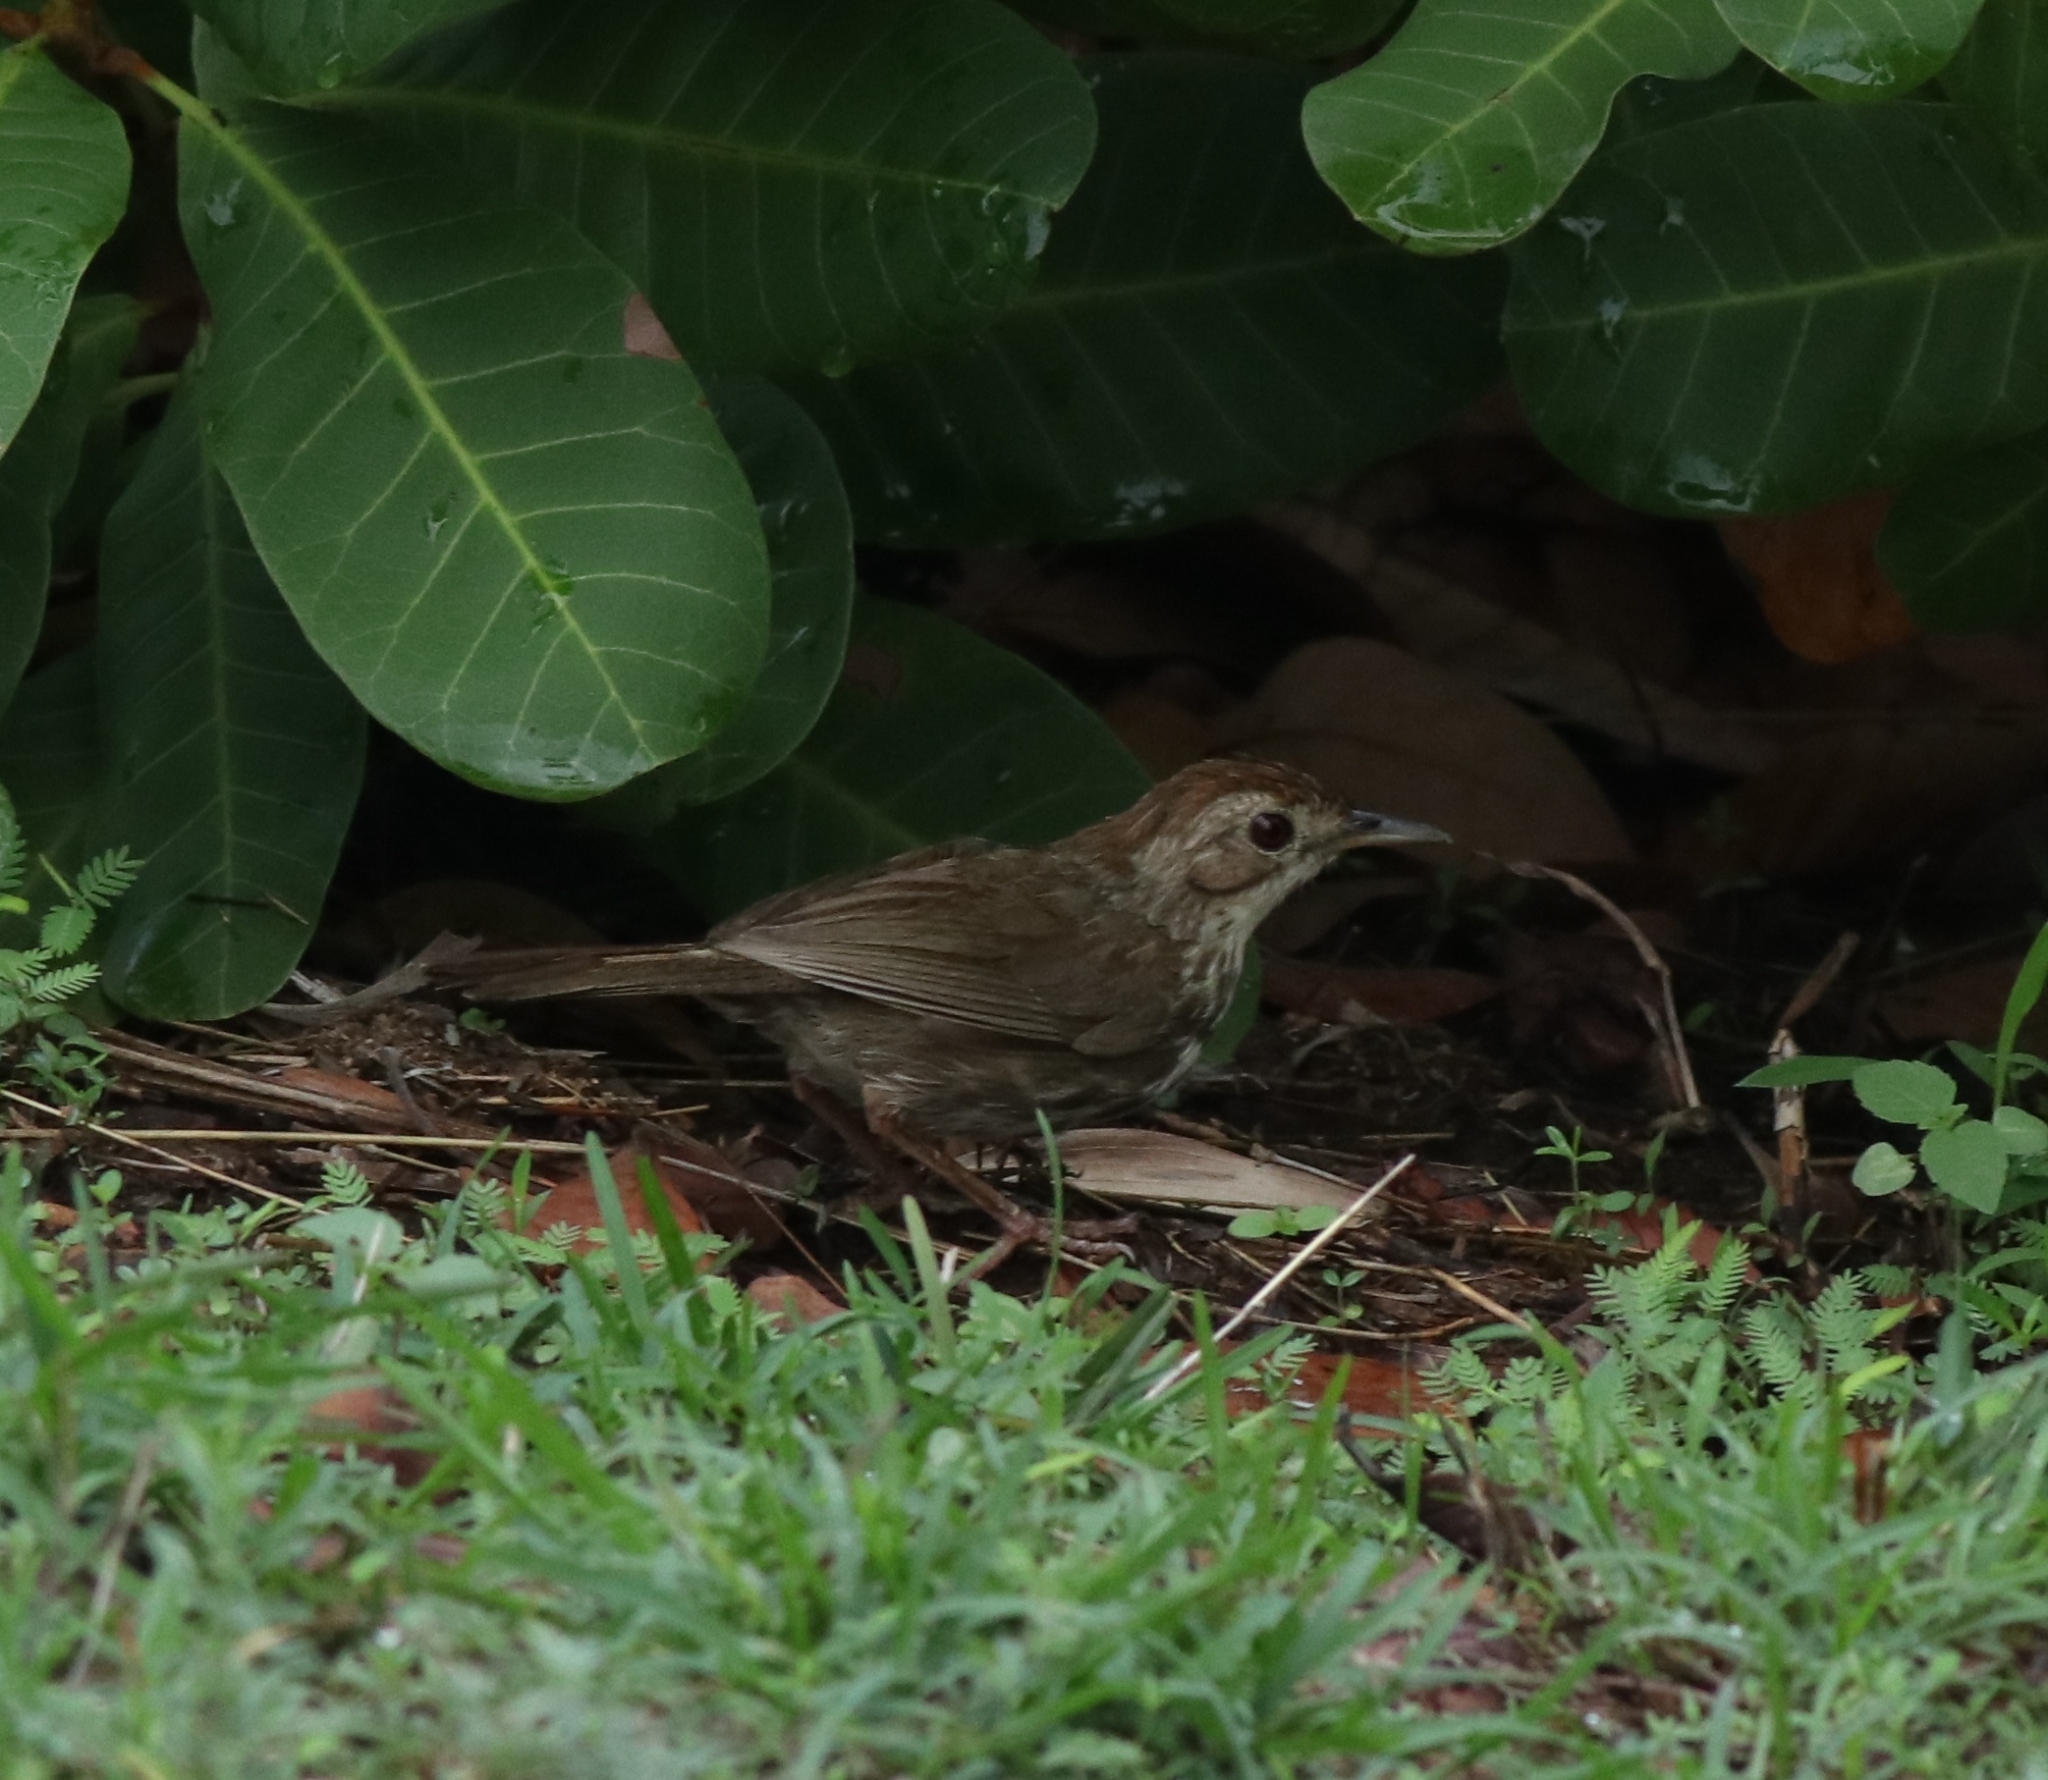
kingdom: Animalia
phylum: Chordata
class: Aves
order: Passeriformes
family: Pellorneidae
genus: Pellorneum
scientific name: Pellorneum ruficeps
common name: Puff-throated babbler
